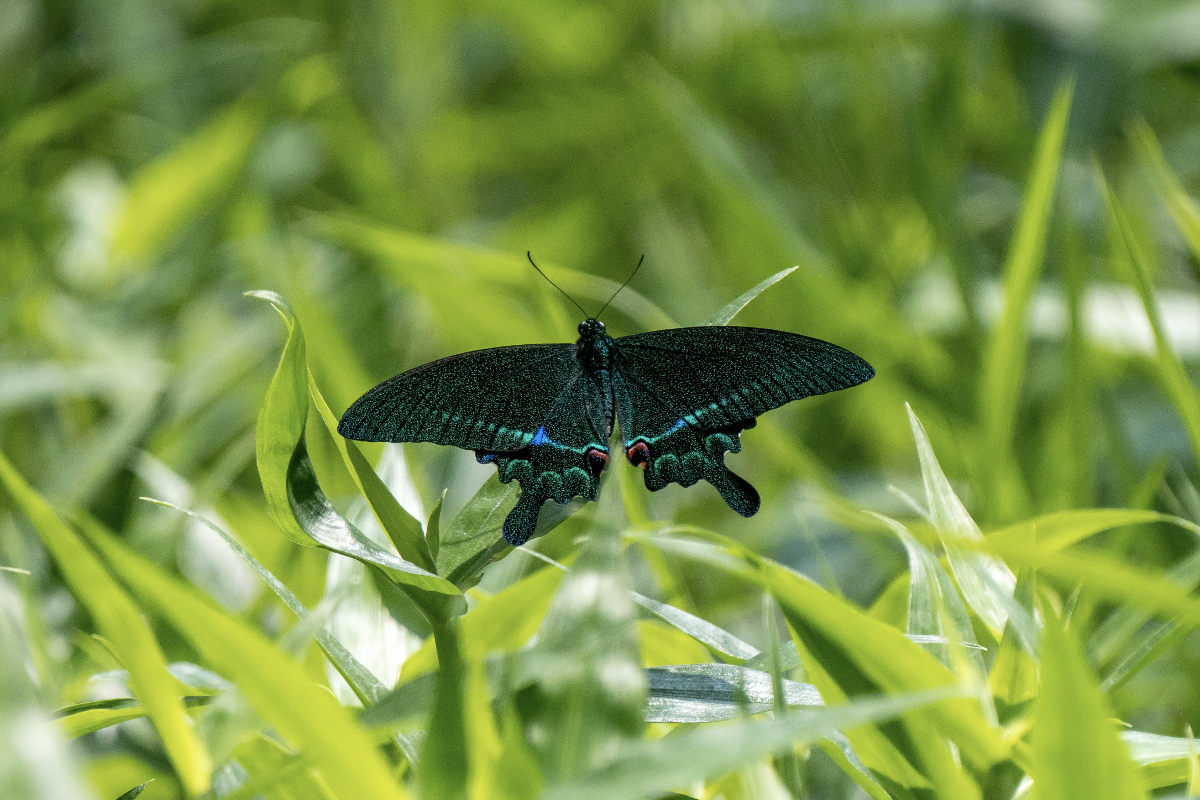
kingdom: Animalia
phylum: Arthropoda
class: Insecta
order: Lepidoptera
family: Papilionidae
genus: Papilio
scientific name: Papilio paris
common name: Paris peacock
